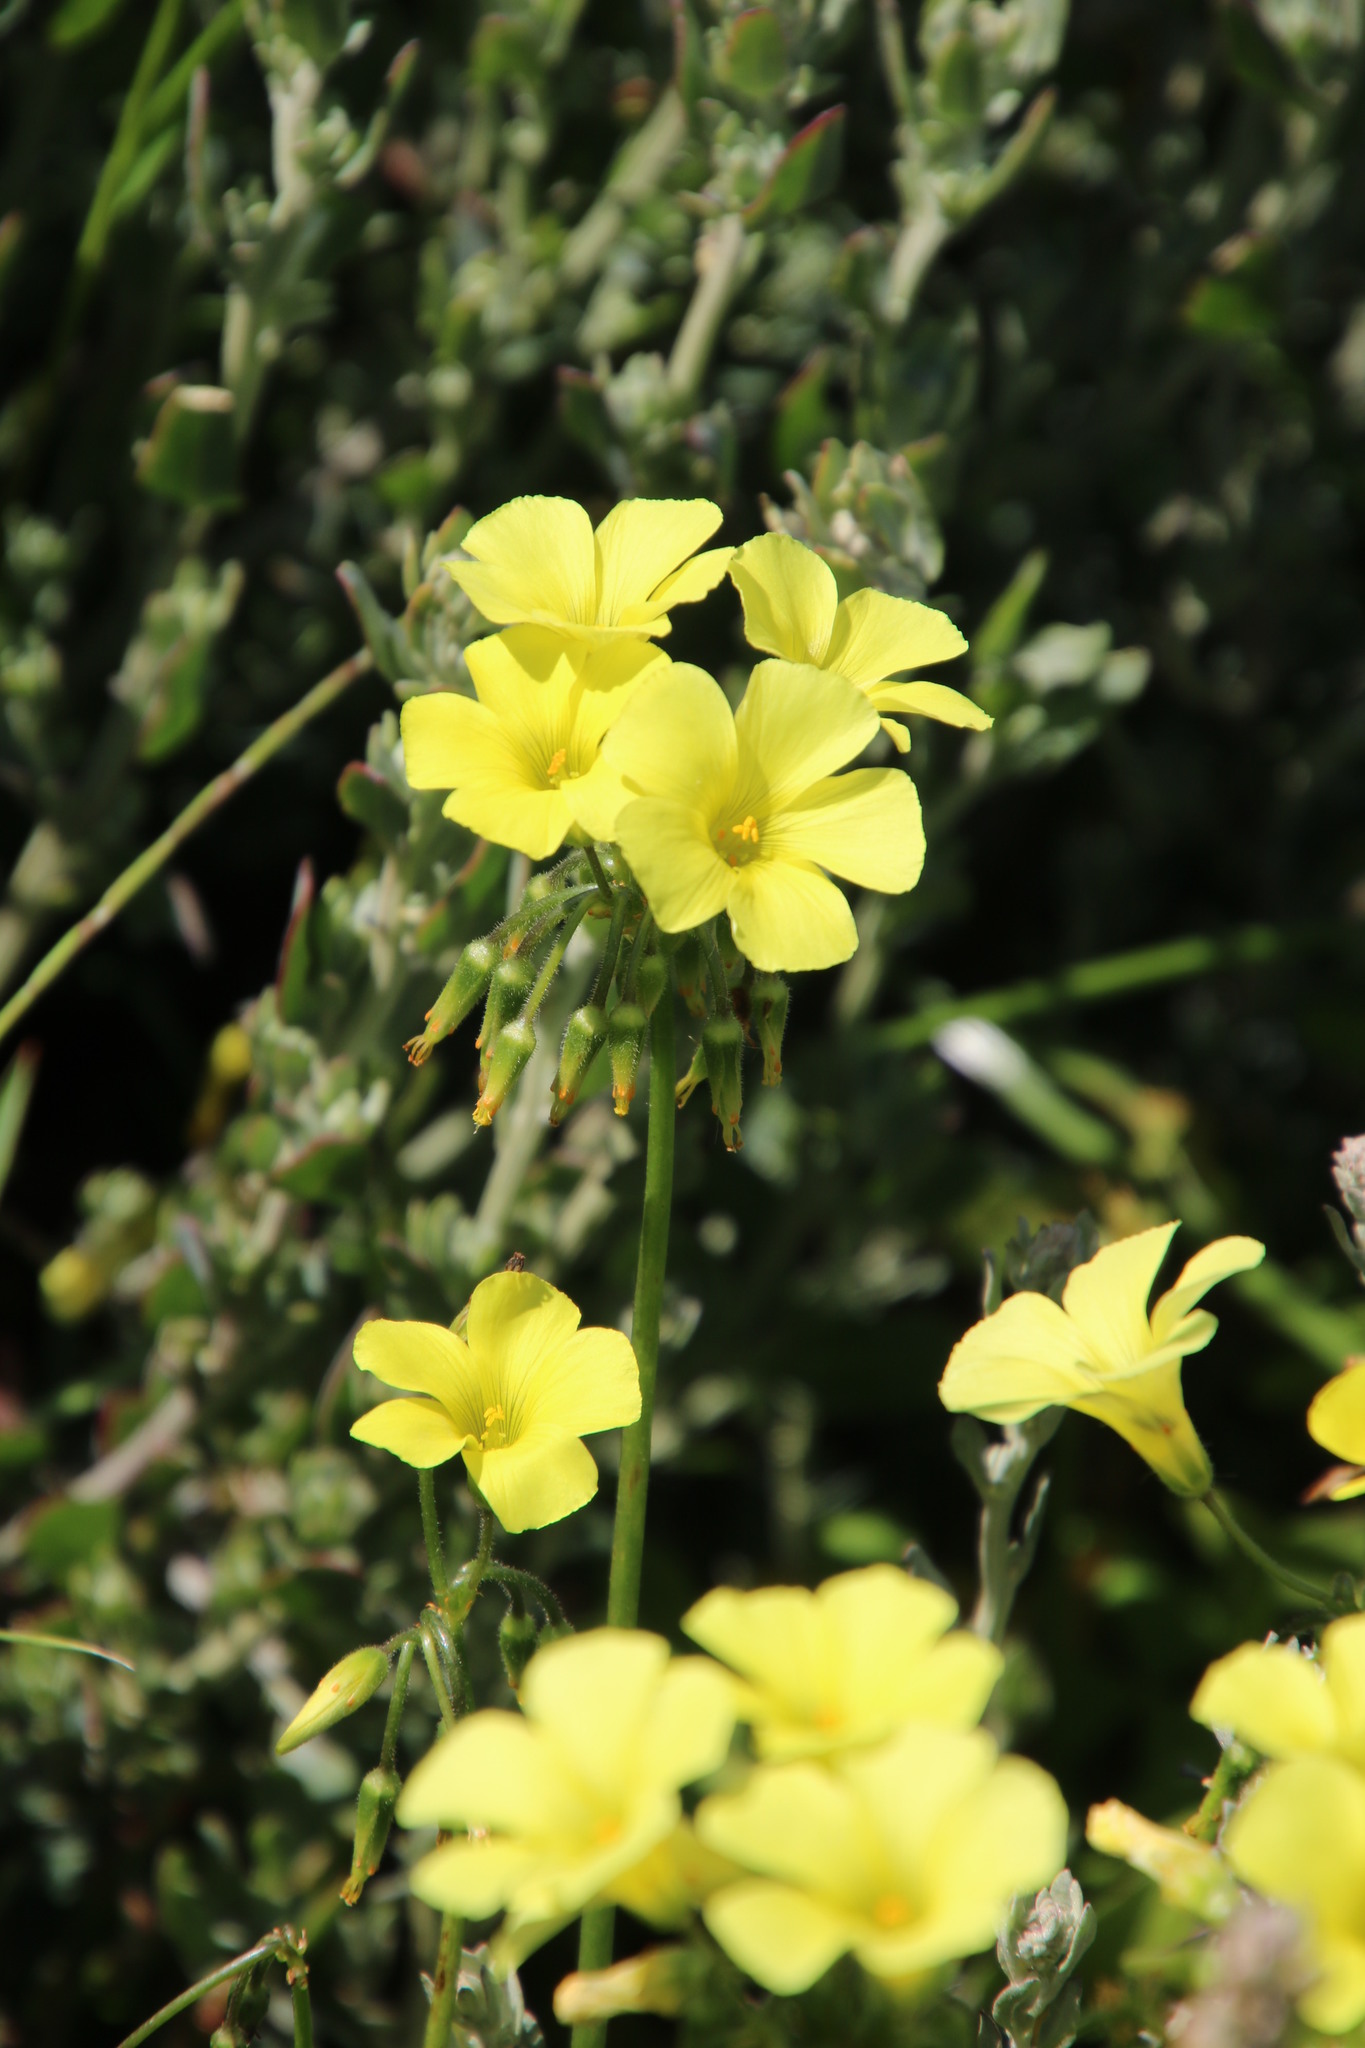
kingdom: Plantae
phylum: Tracheophyta
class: Magnoliopsida
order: Oxalidales
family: Oxalidaceae
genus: Oxalis
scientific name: Oxalis pes-caprae
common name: Bermuda-buttercup
